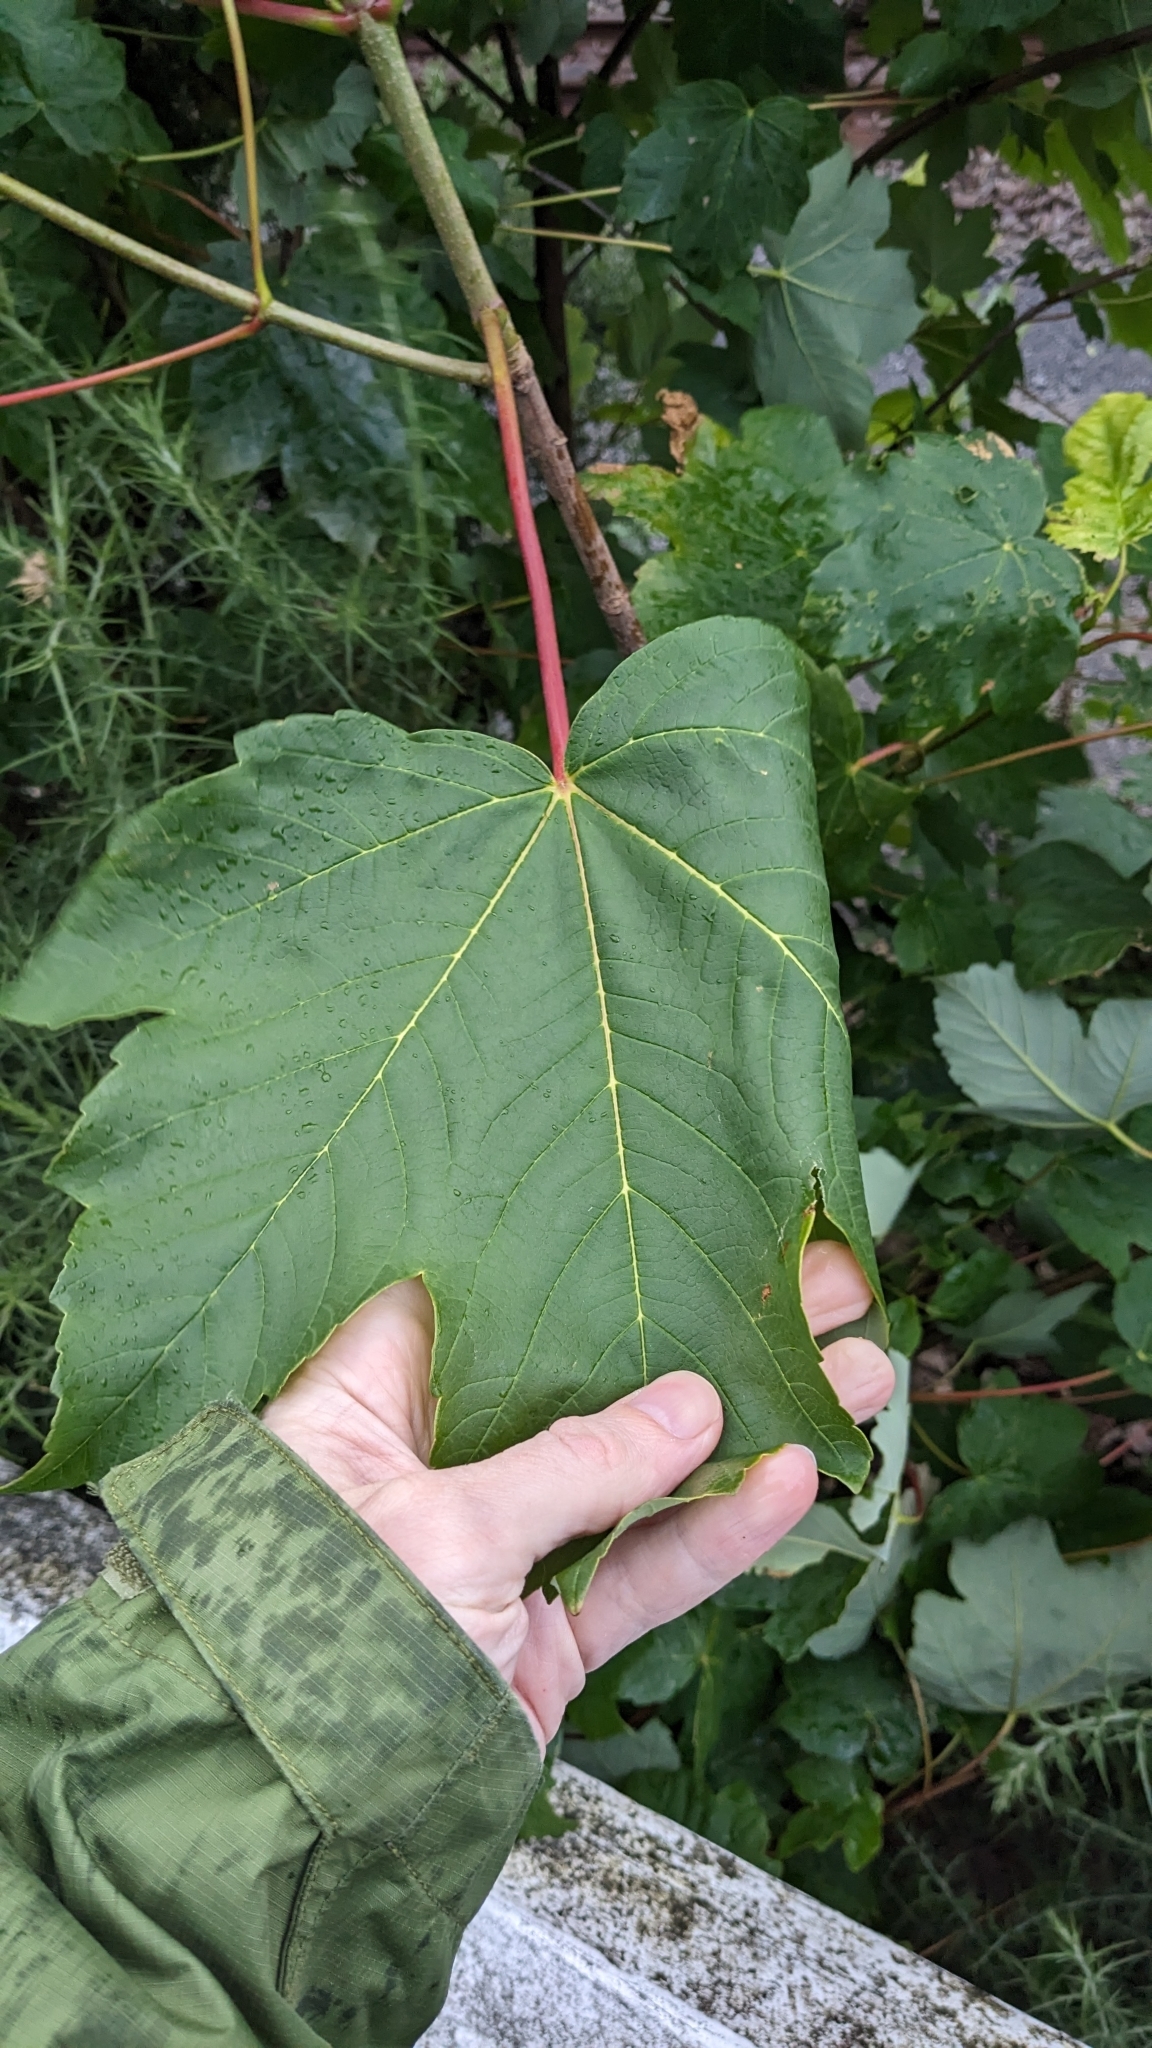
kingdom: Plantae
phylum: Tracheophyta
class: Magnoliopsida
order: Sapindales
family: Sapindaceae
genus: Acer
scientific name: Acer pseudoplatanus
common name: Sycamore
